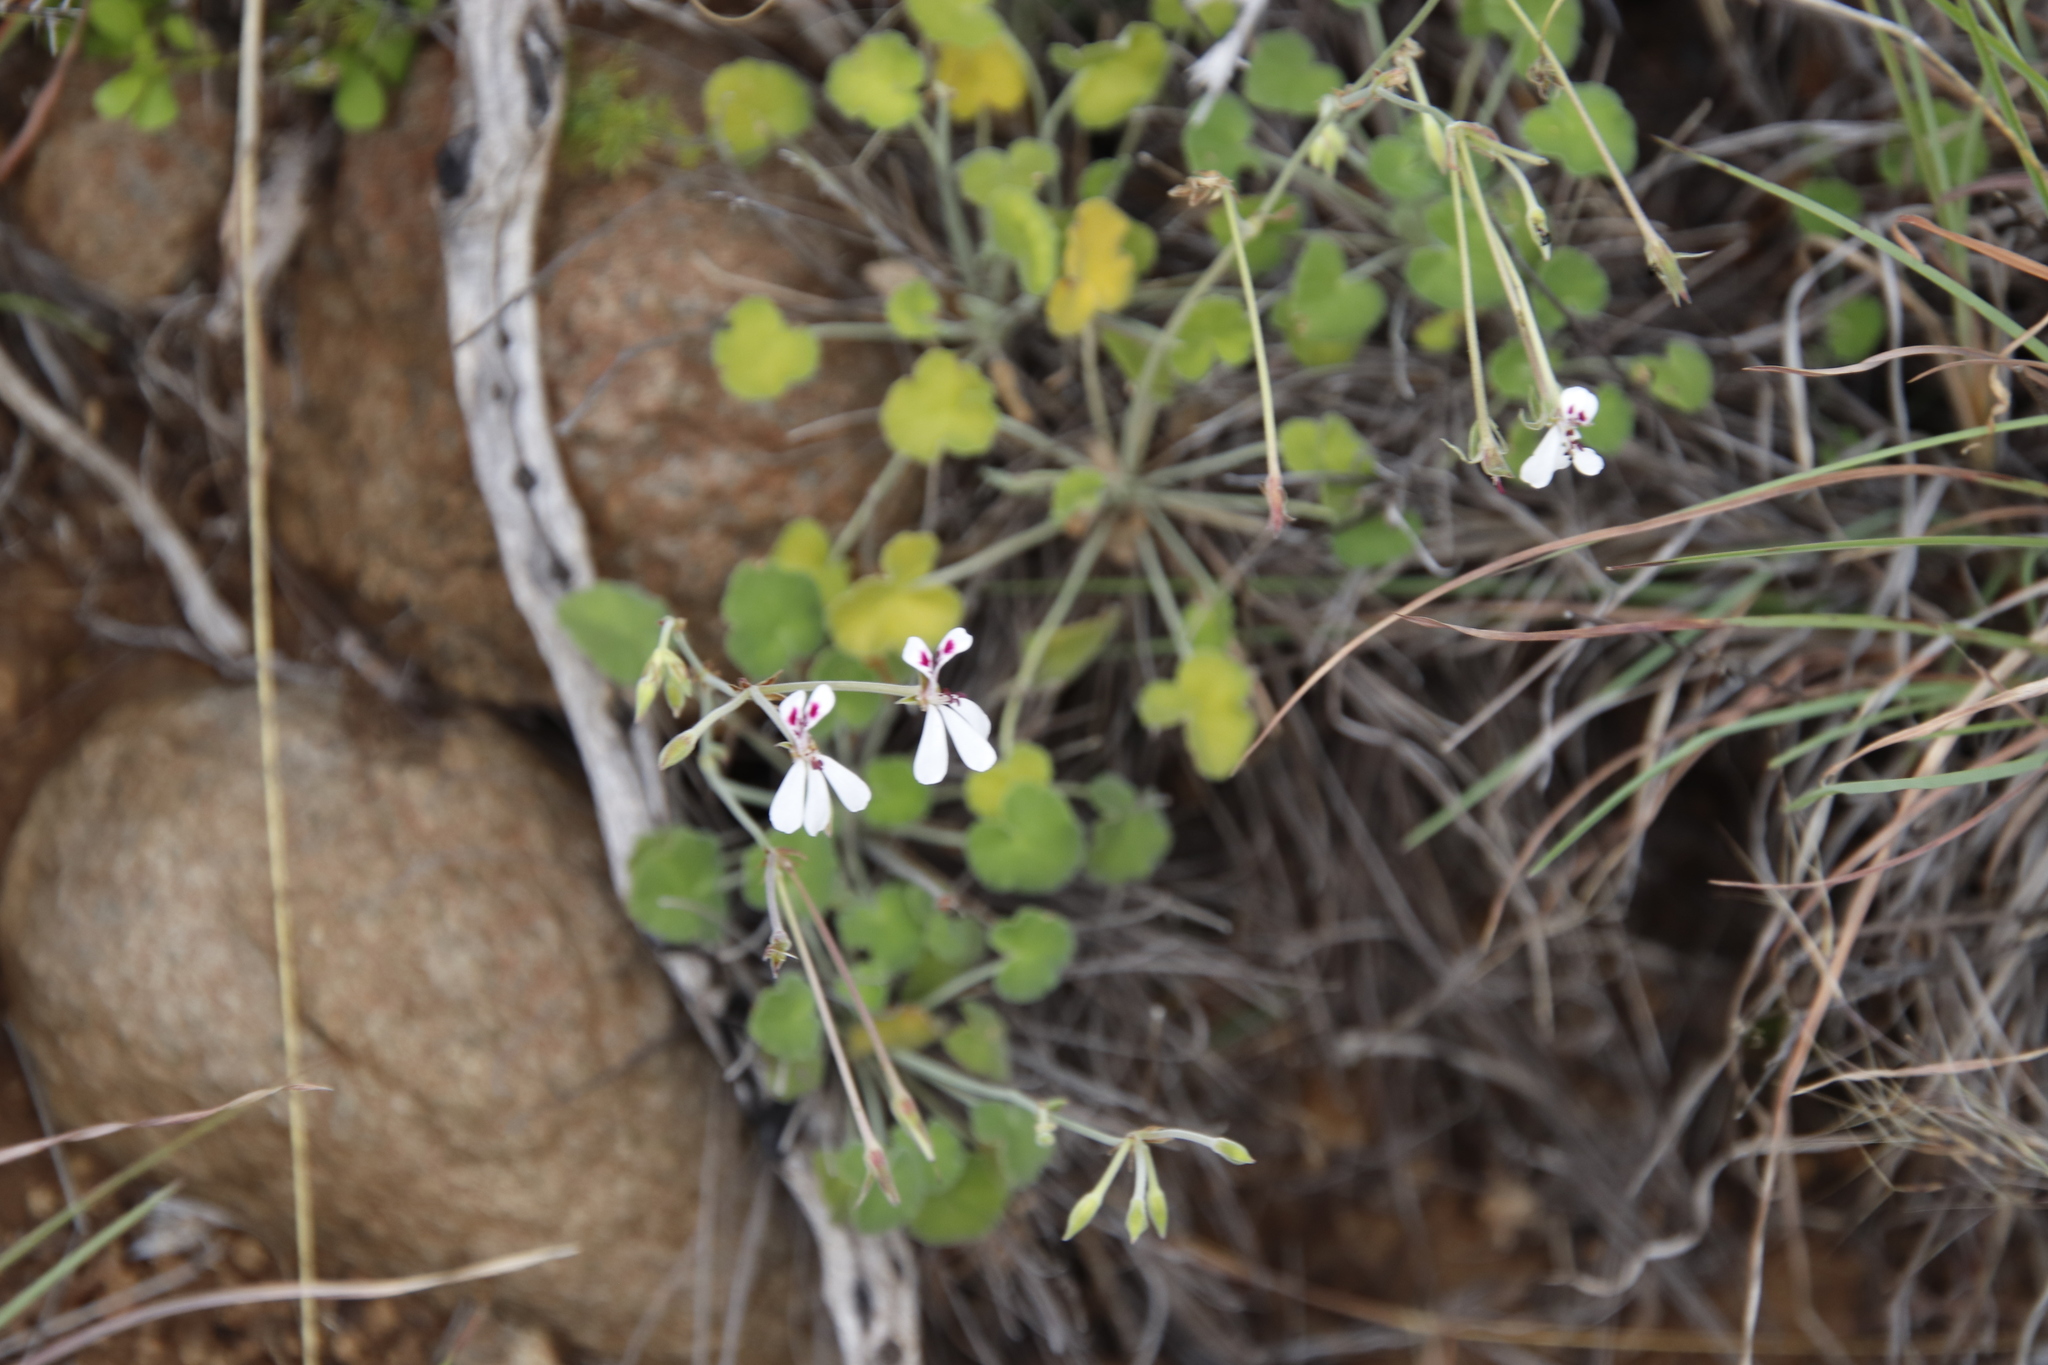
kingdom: Plantae
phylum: Tracheophyta
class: Magnoliopsida
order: Geraniales
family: Geraniaceae
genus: Pelargonium
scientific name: Pelargonium dichondrifolium
